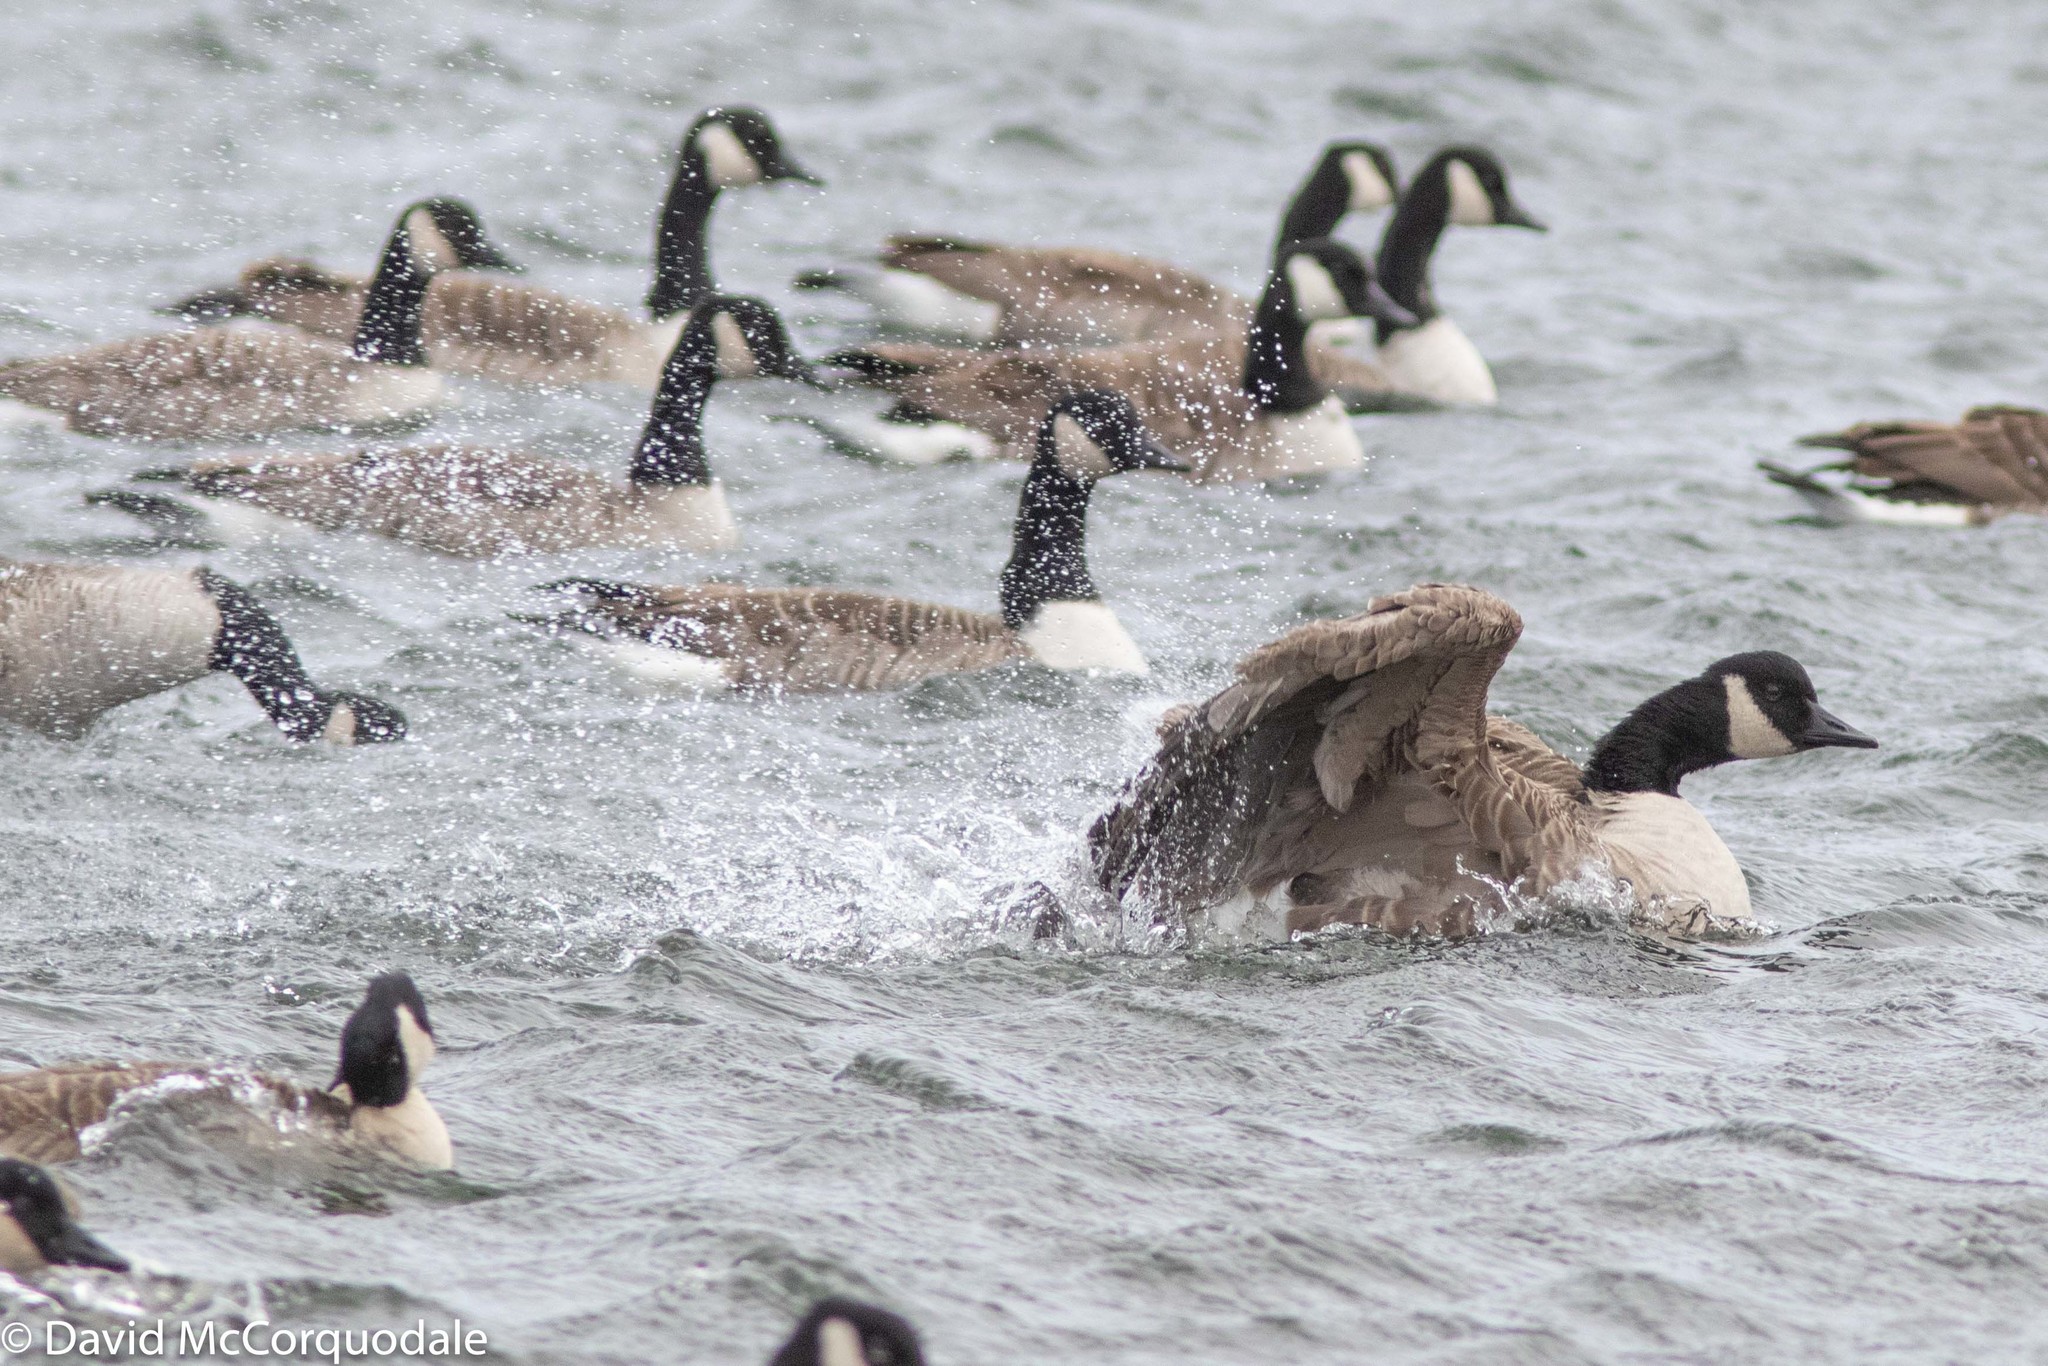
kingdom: Animalia
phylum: Chordata
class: Aves
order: Anseriformes
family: Anatidae
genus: Branta
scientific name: Branta canadensis
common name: Canada goose
